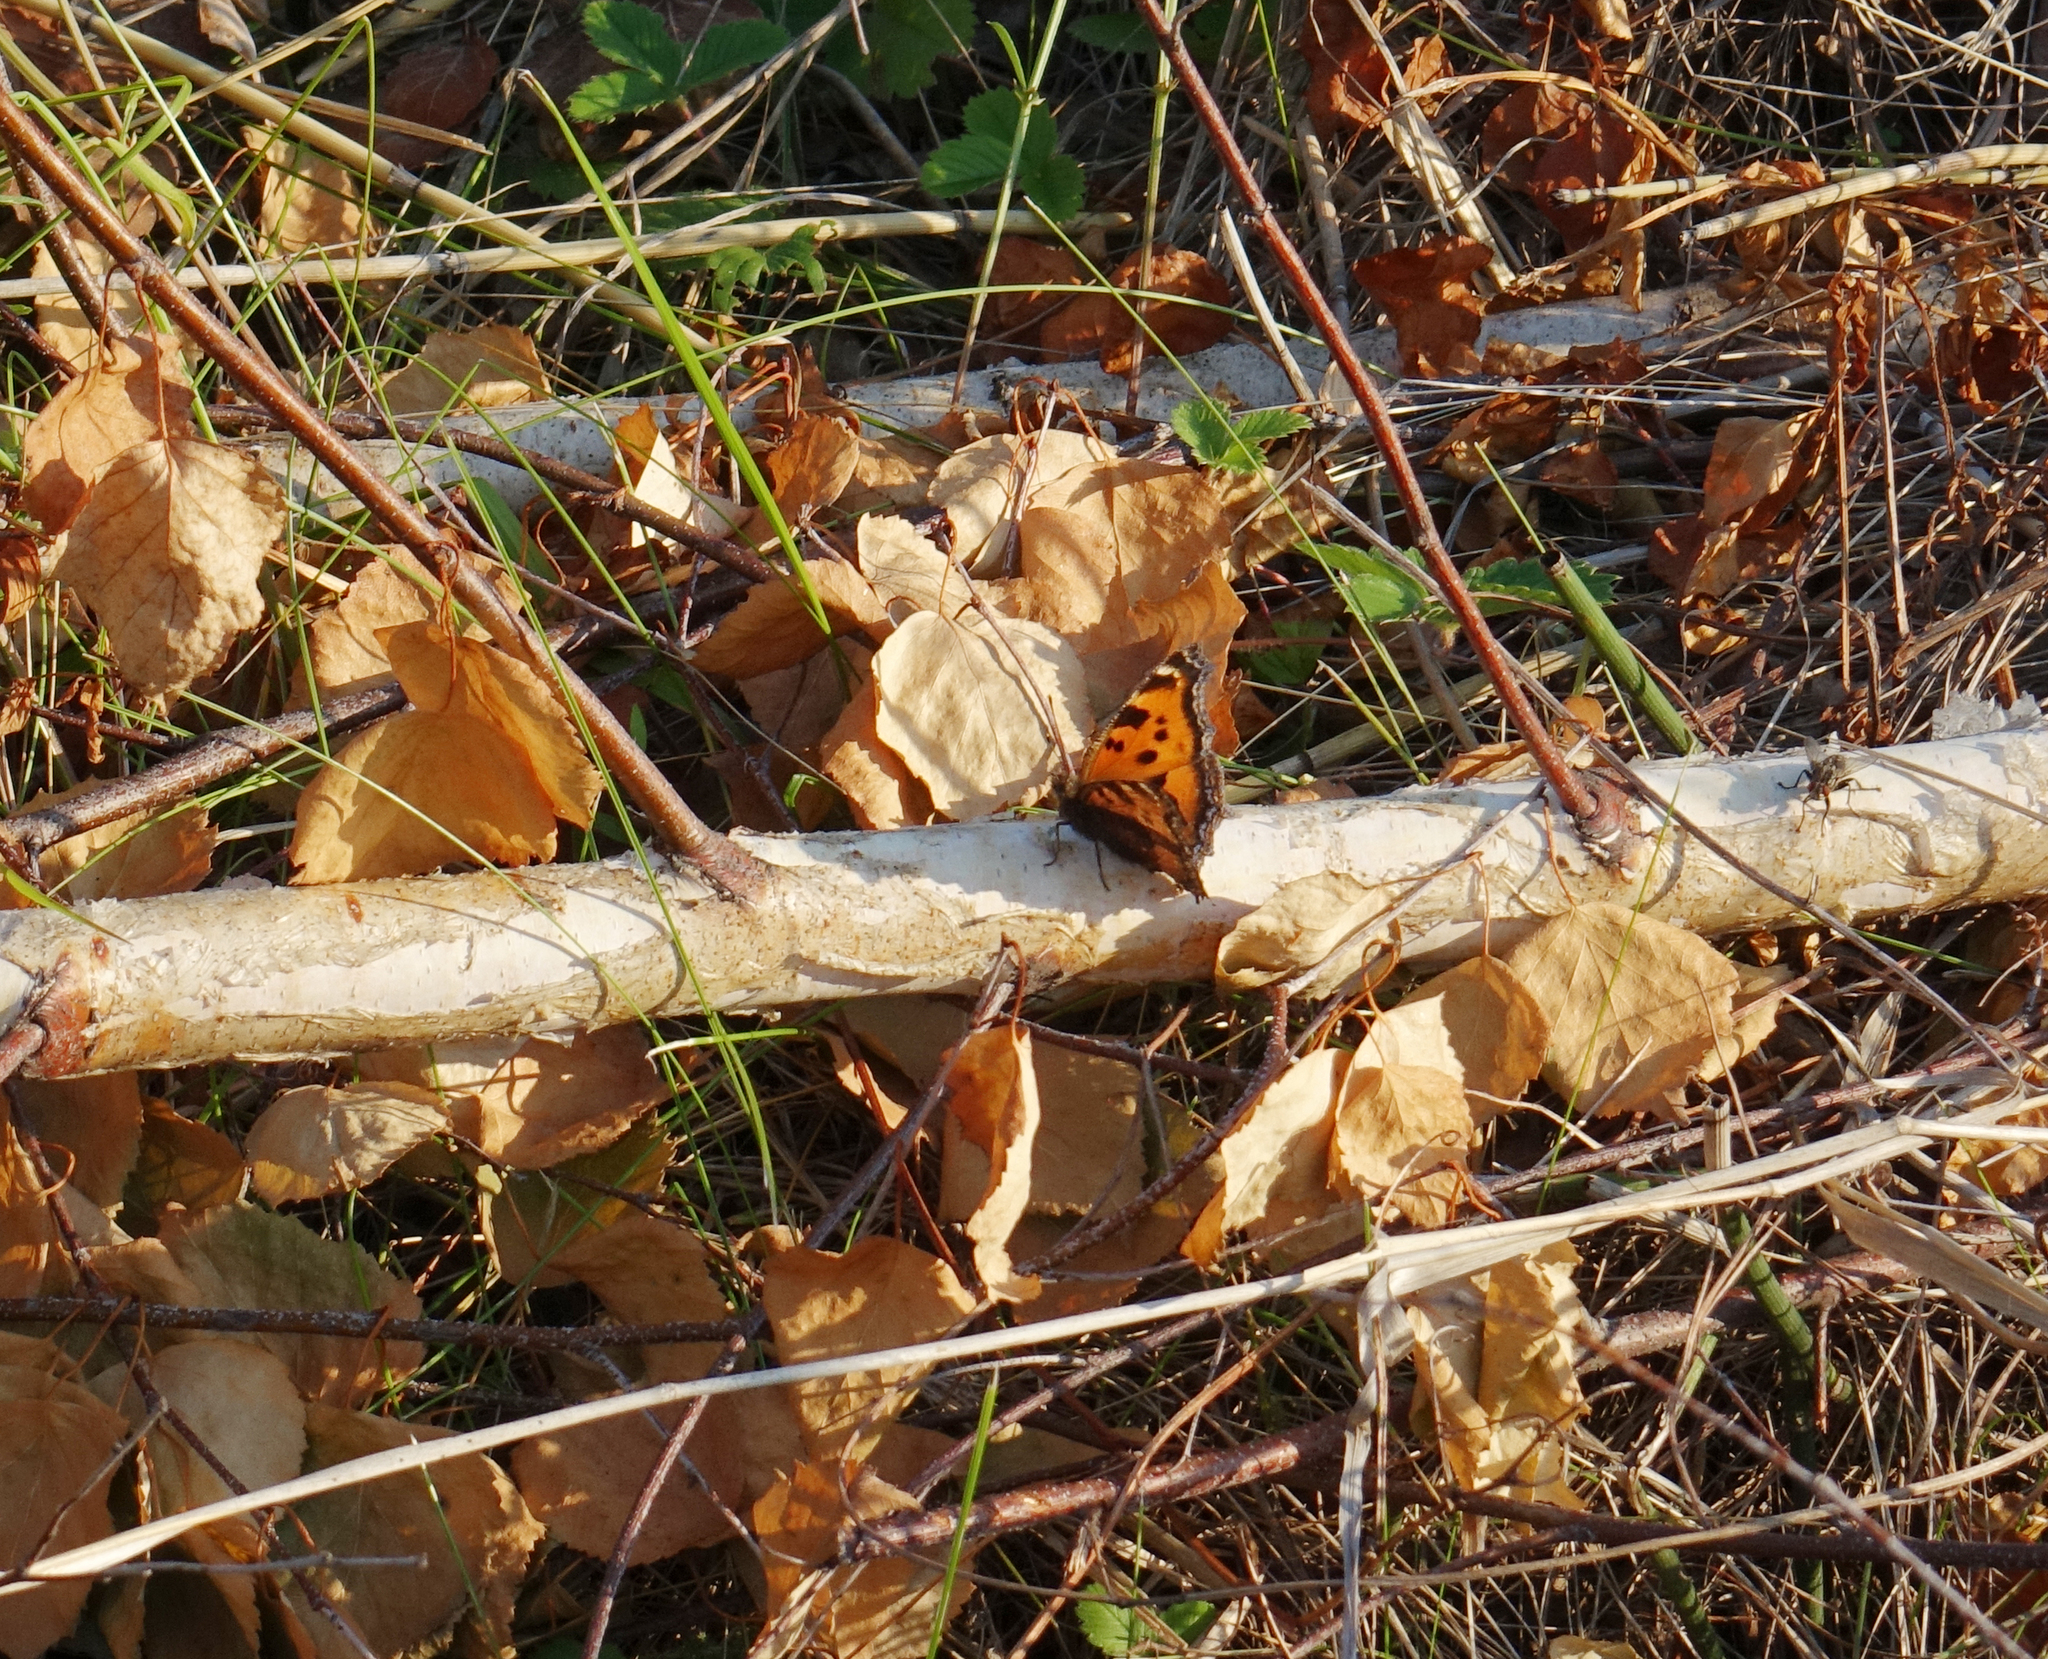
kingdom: Animalia
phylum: Arthropoda
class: Insecta
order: Lepidoptera
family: Nymphalidae
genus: Nymphalis
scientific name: Nymphalis xanthomelas
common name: Scarce tortoiseshell
